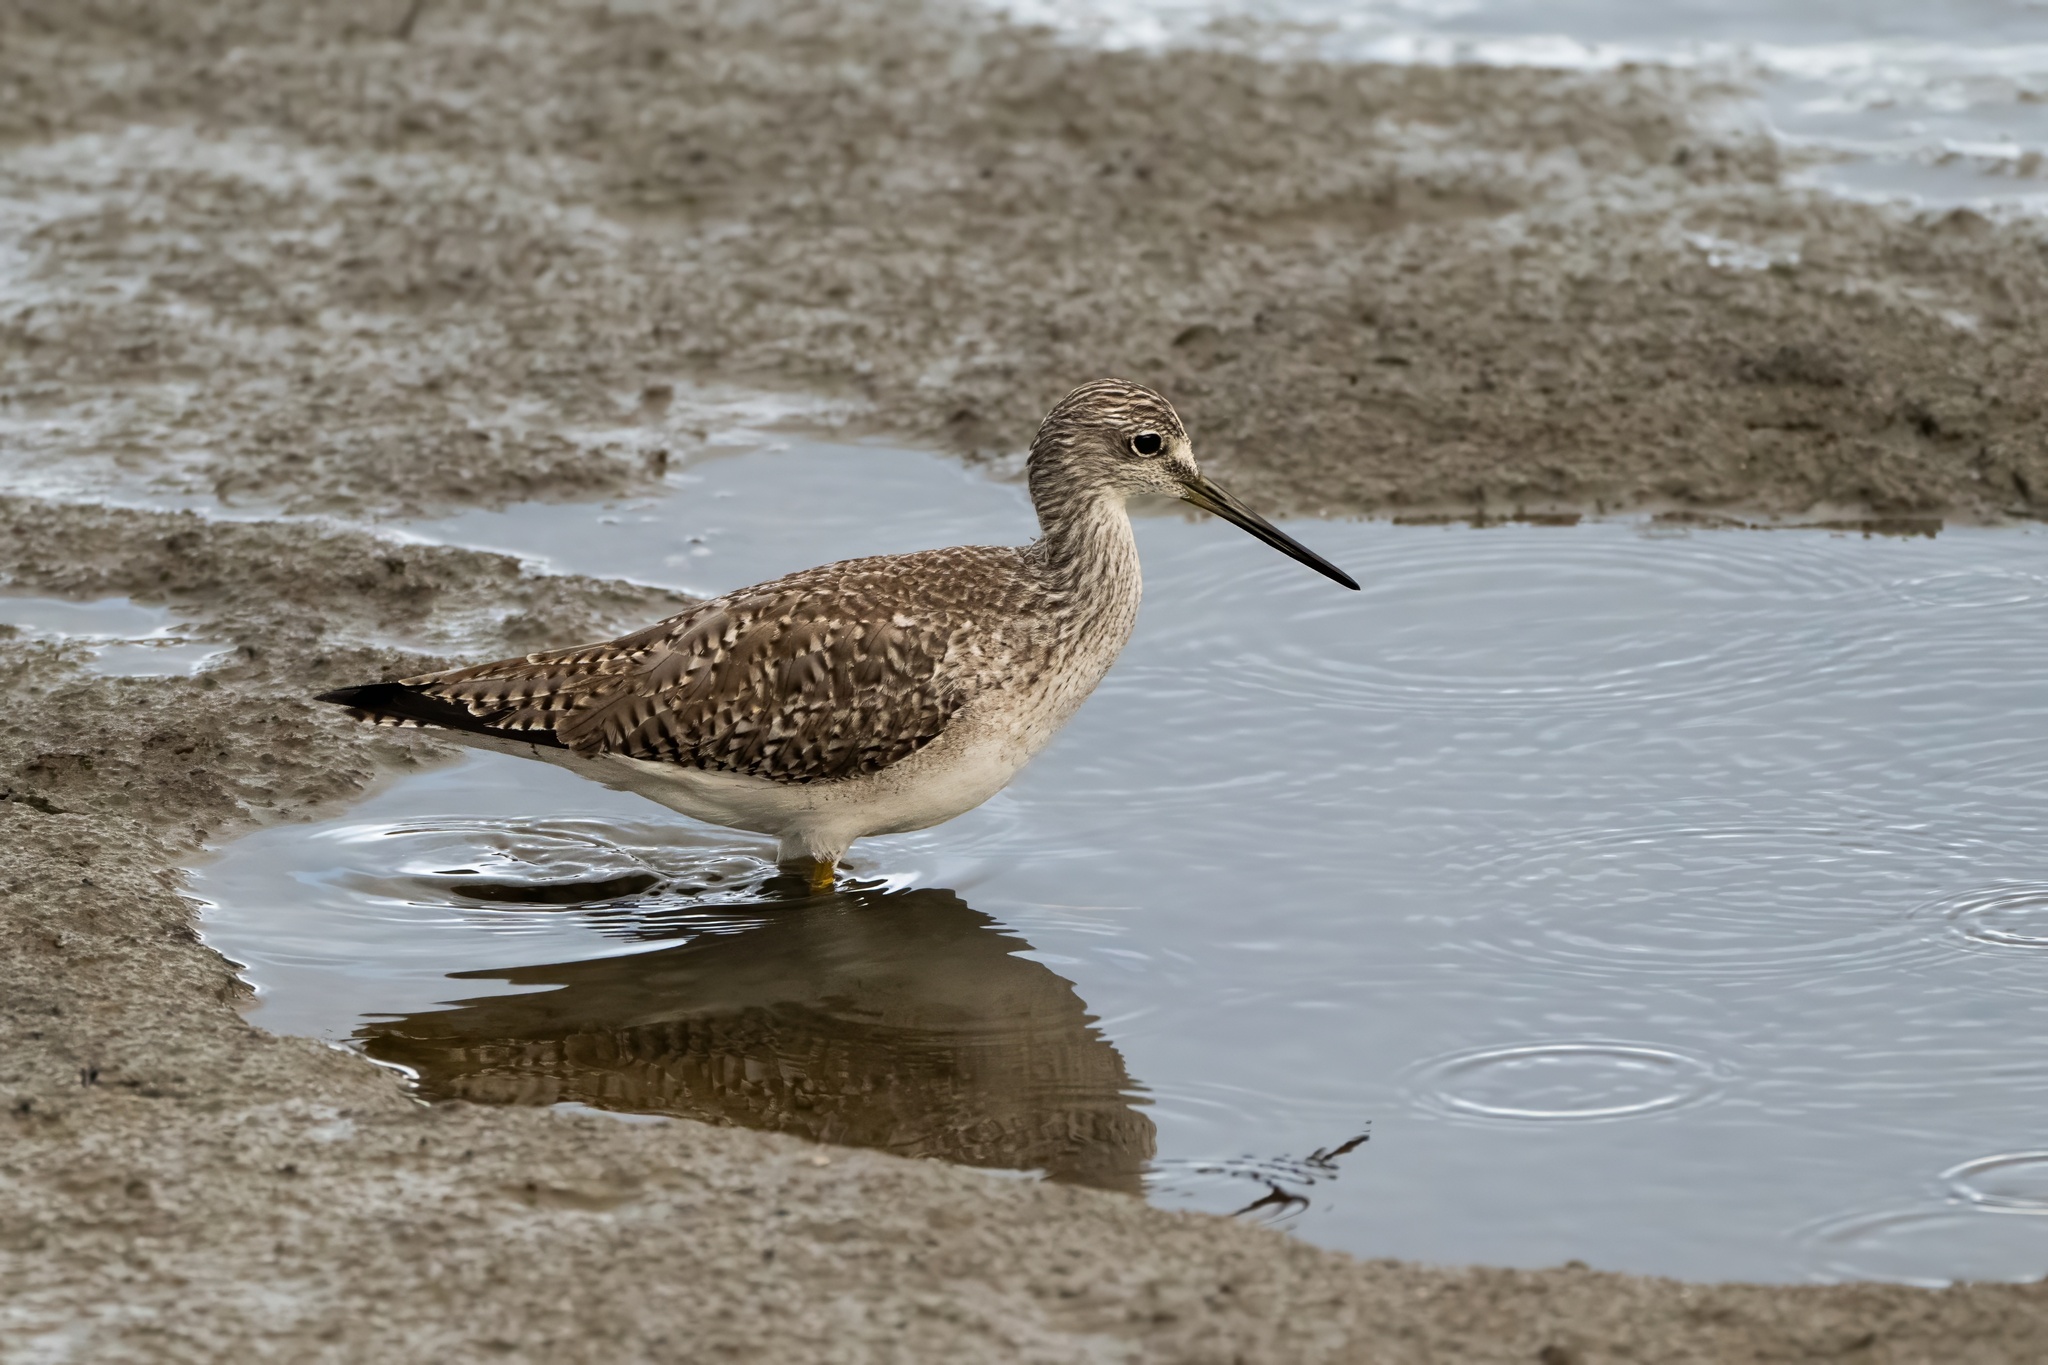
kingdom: Animalia
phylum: Chordata
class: Aves
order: Charadriiformes
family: Scolopacidae
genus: Tringa
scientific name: Tringa melanoleuca
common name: Greater yellowlegs
